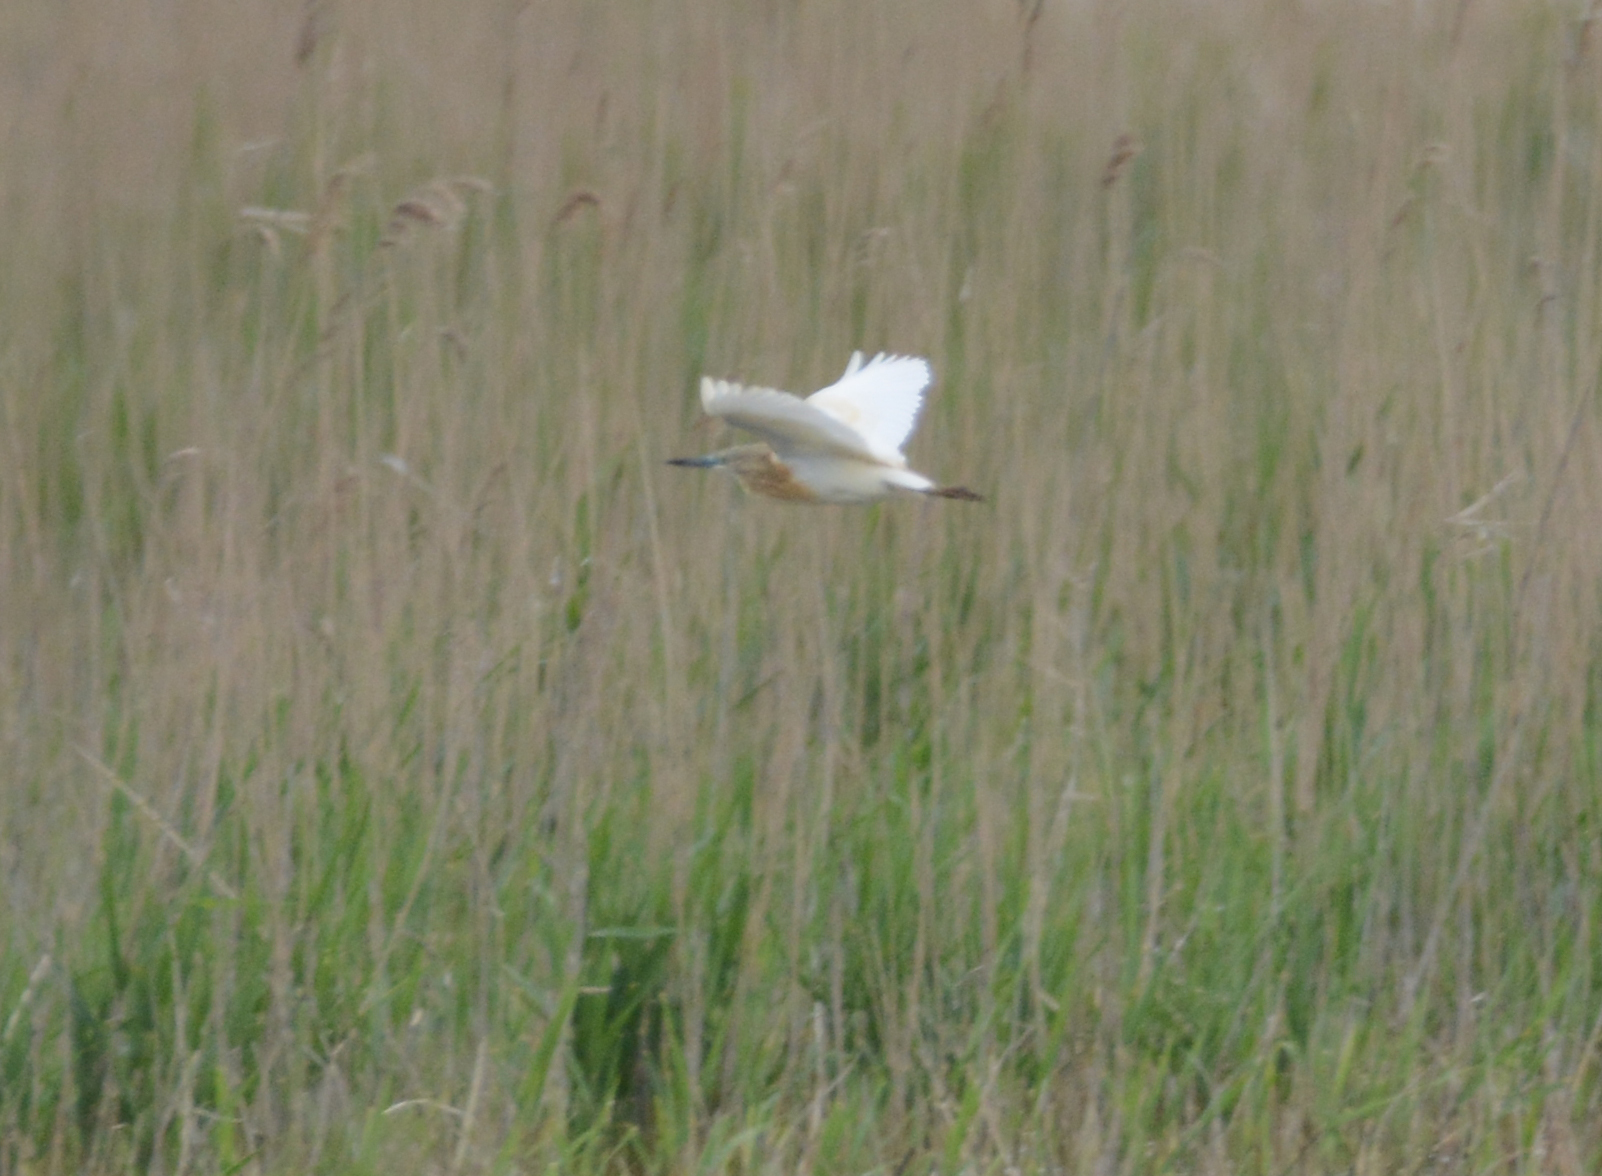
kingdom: Animalia
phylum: Chordata
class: Aves
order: Pelecaniformes
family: Ardeidae
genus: Ardeola
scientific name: Ardeola ralloides
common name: Squacco heron
